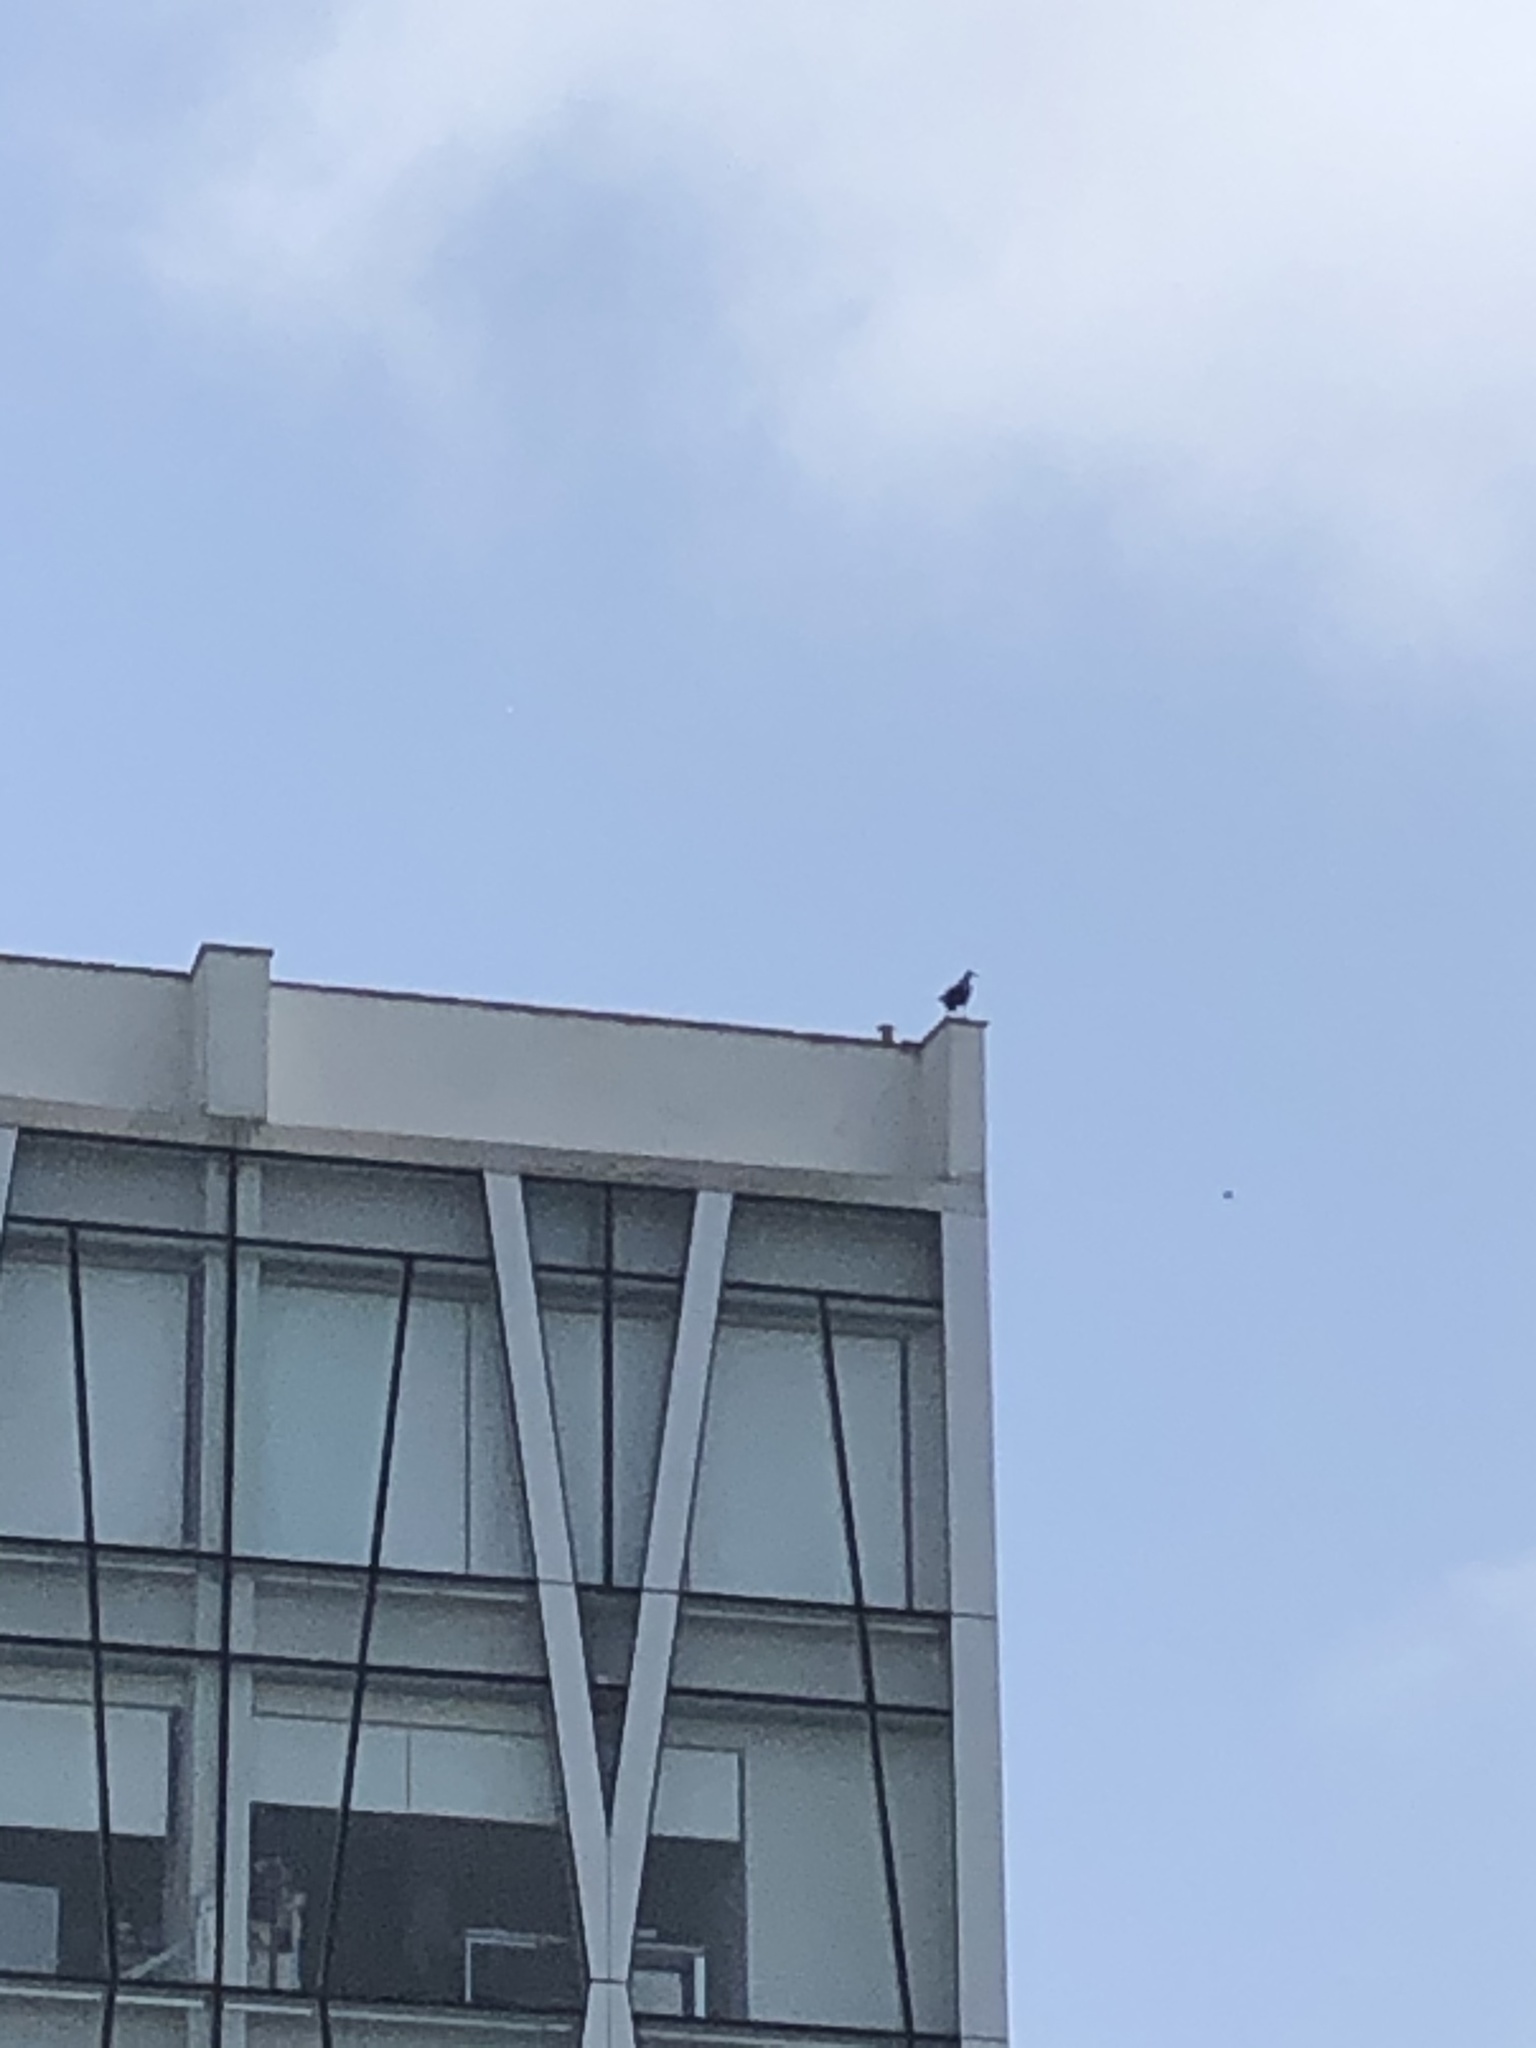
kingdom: Animalia
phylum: Chordata
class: Aves
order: Accipitriformes
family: Cathartidae
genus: Coragyps
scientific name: Coragyps atratus
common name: Black vulture
